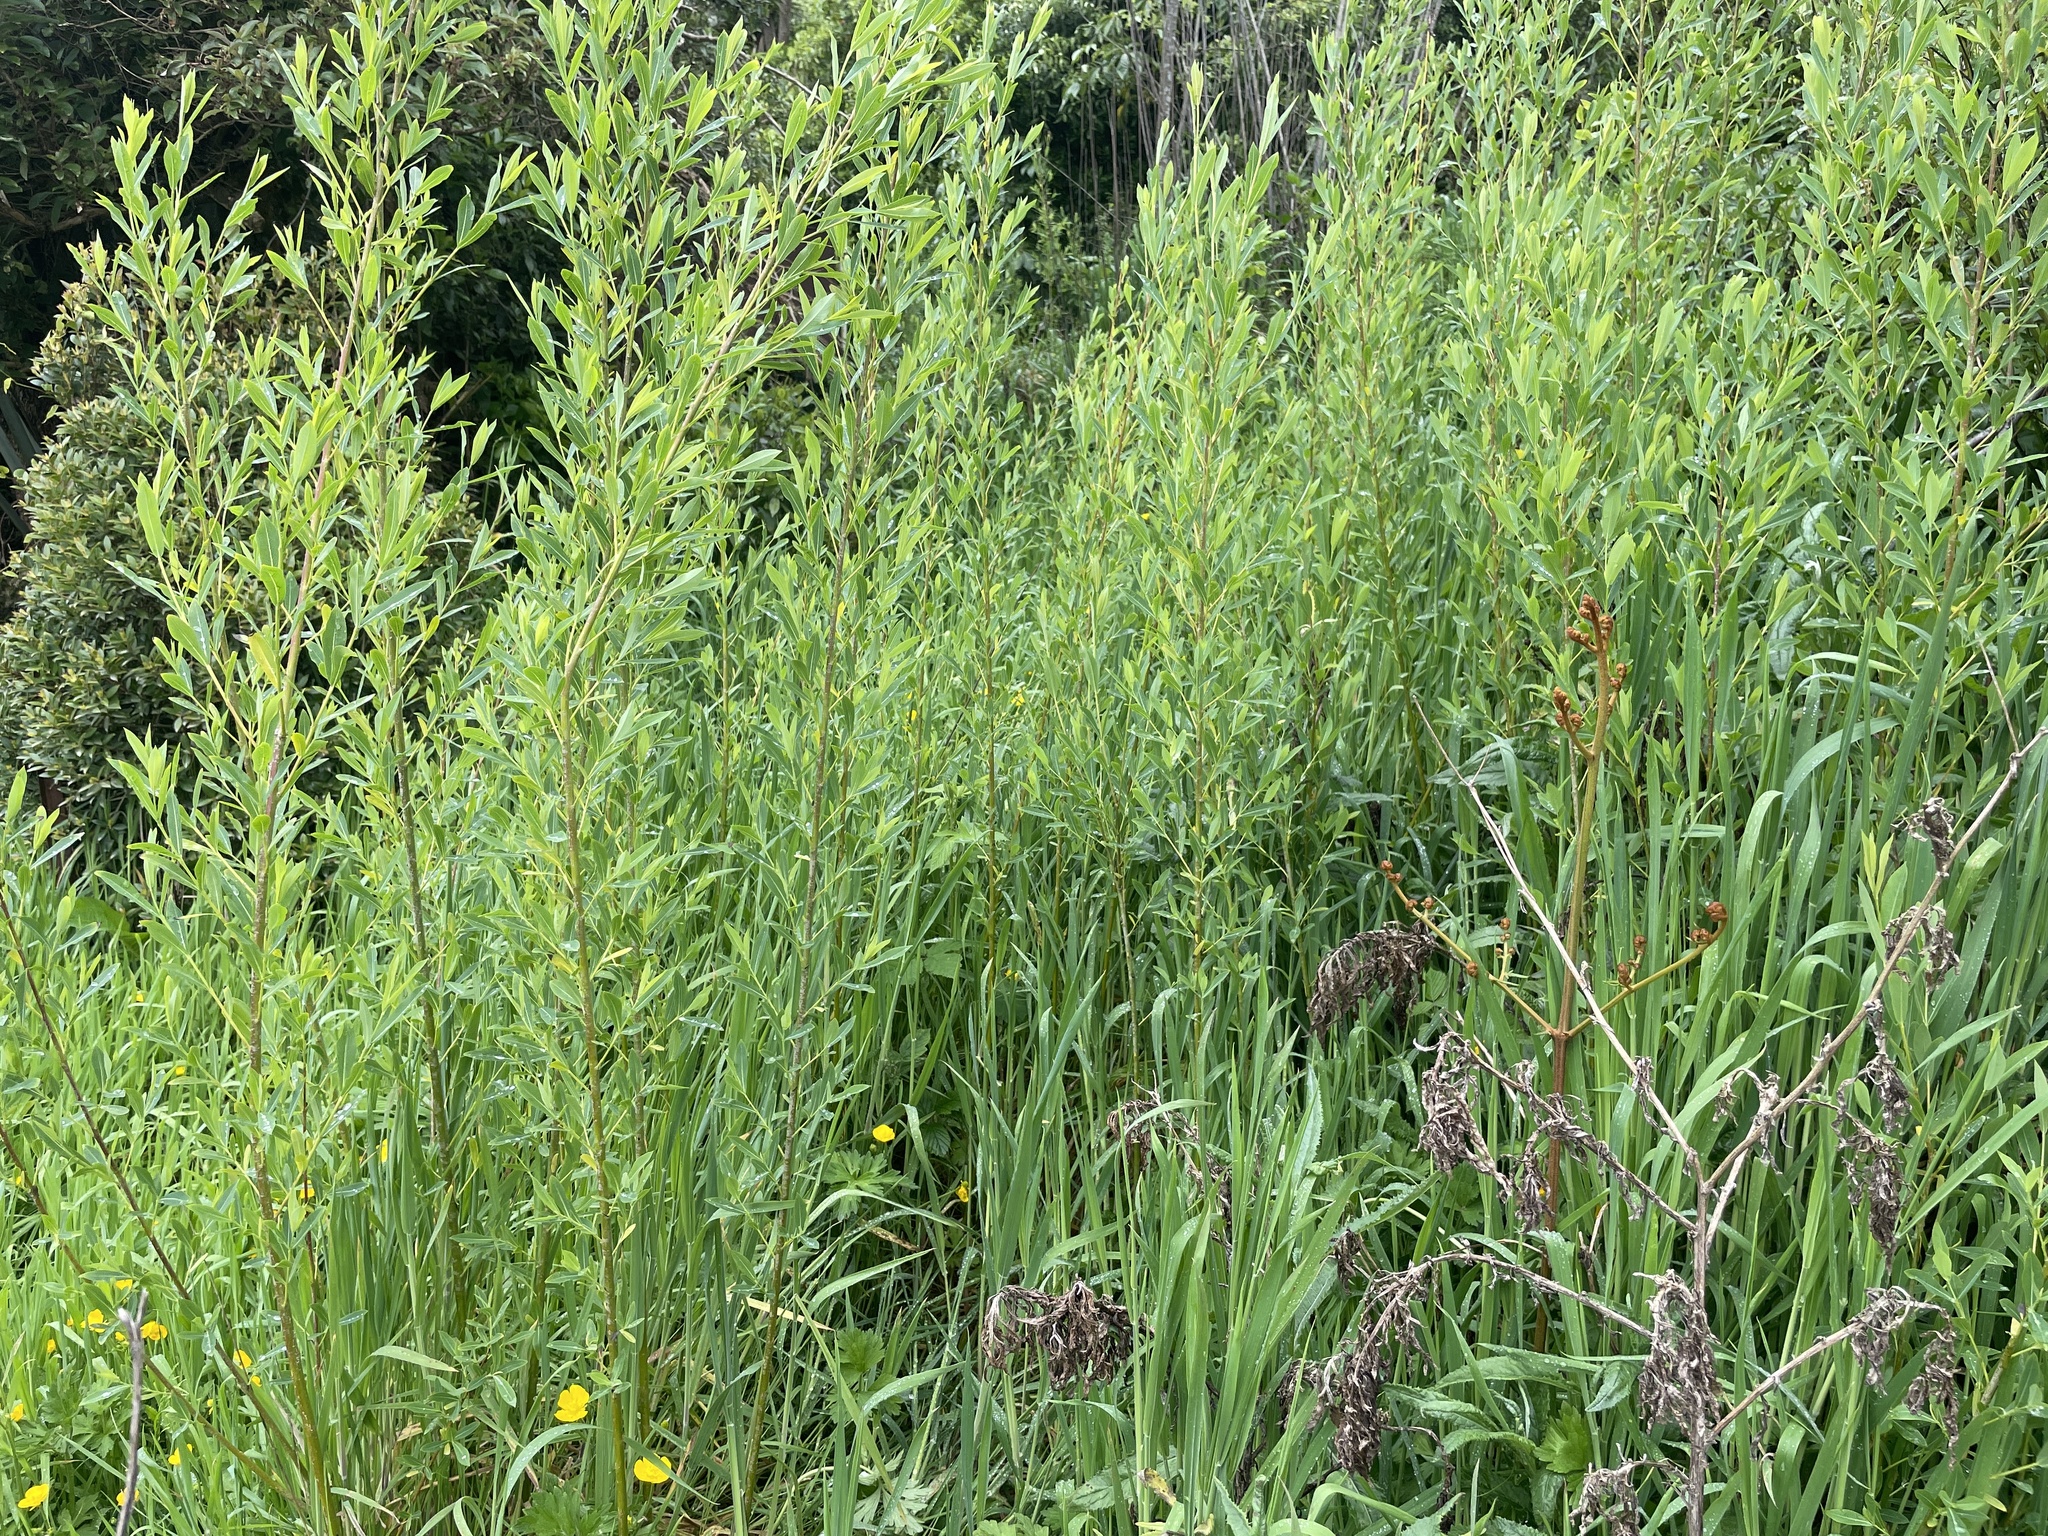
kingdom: Plantae
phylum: Tracheophyta
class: Magnoliopsida
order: Malpighiales
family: Salicaceae
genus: Salix
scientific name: Salix fragilis
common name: Crack willow
